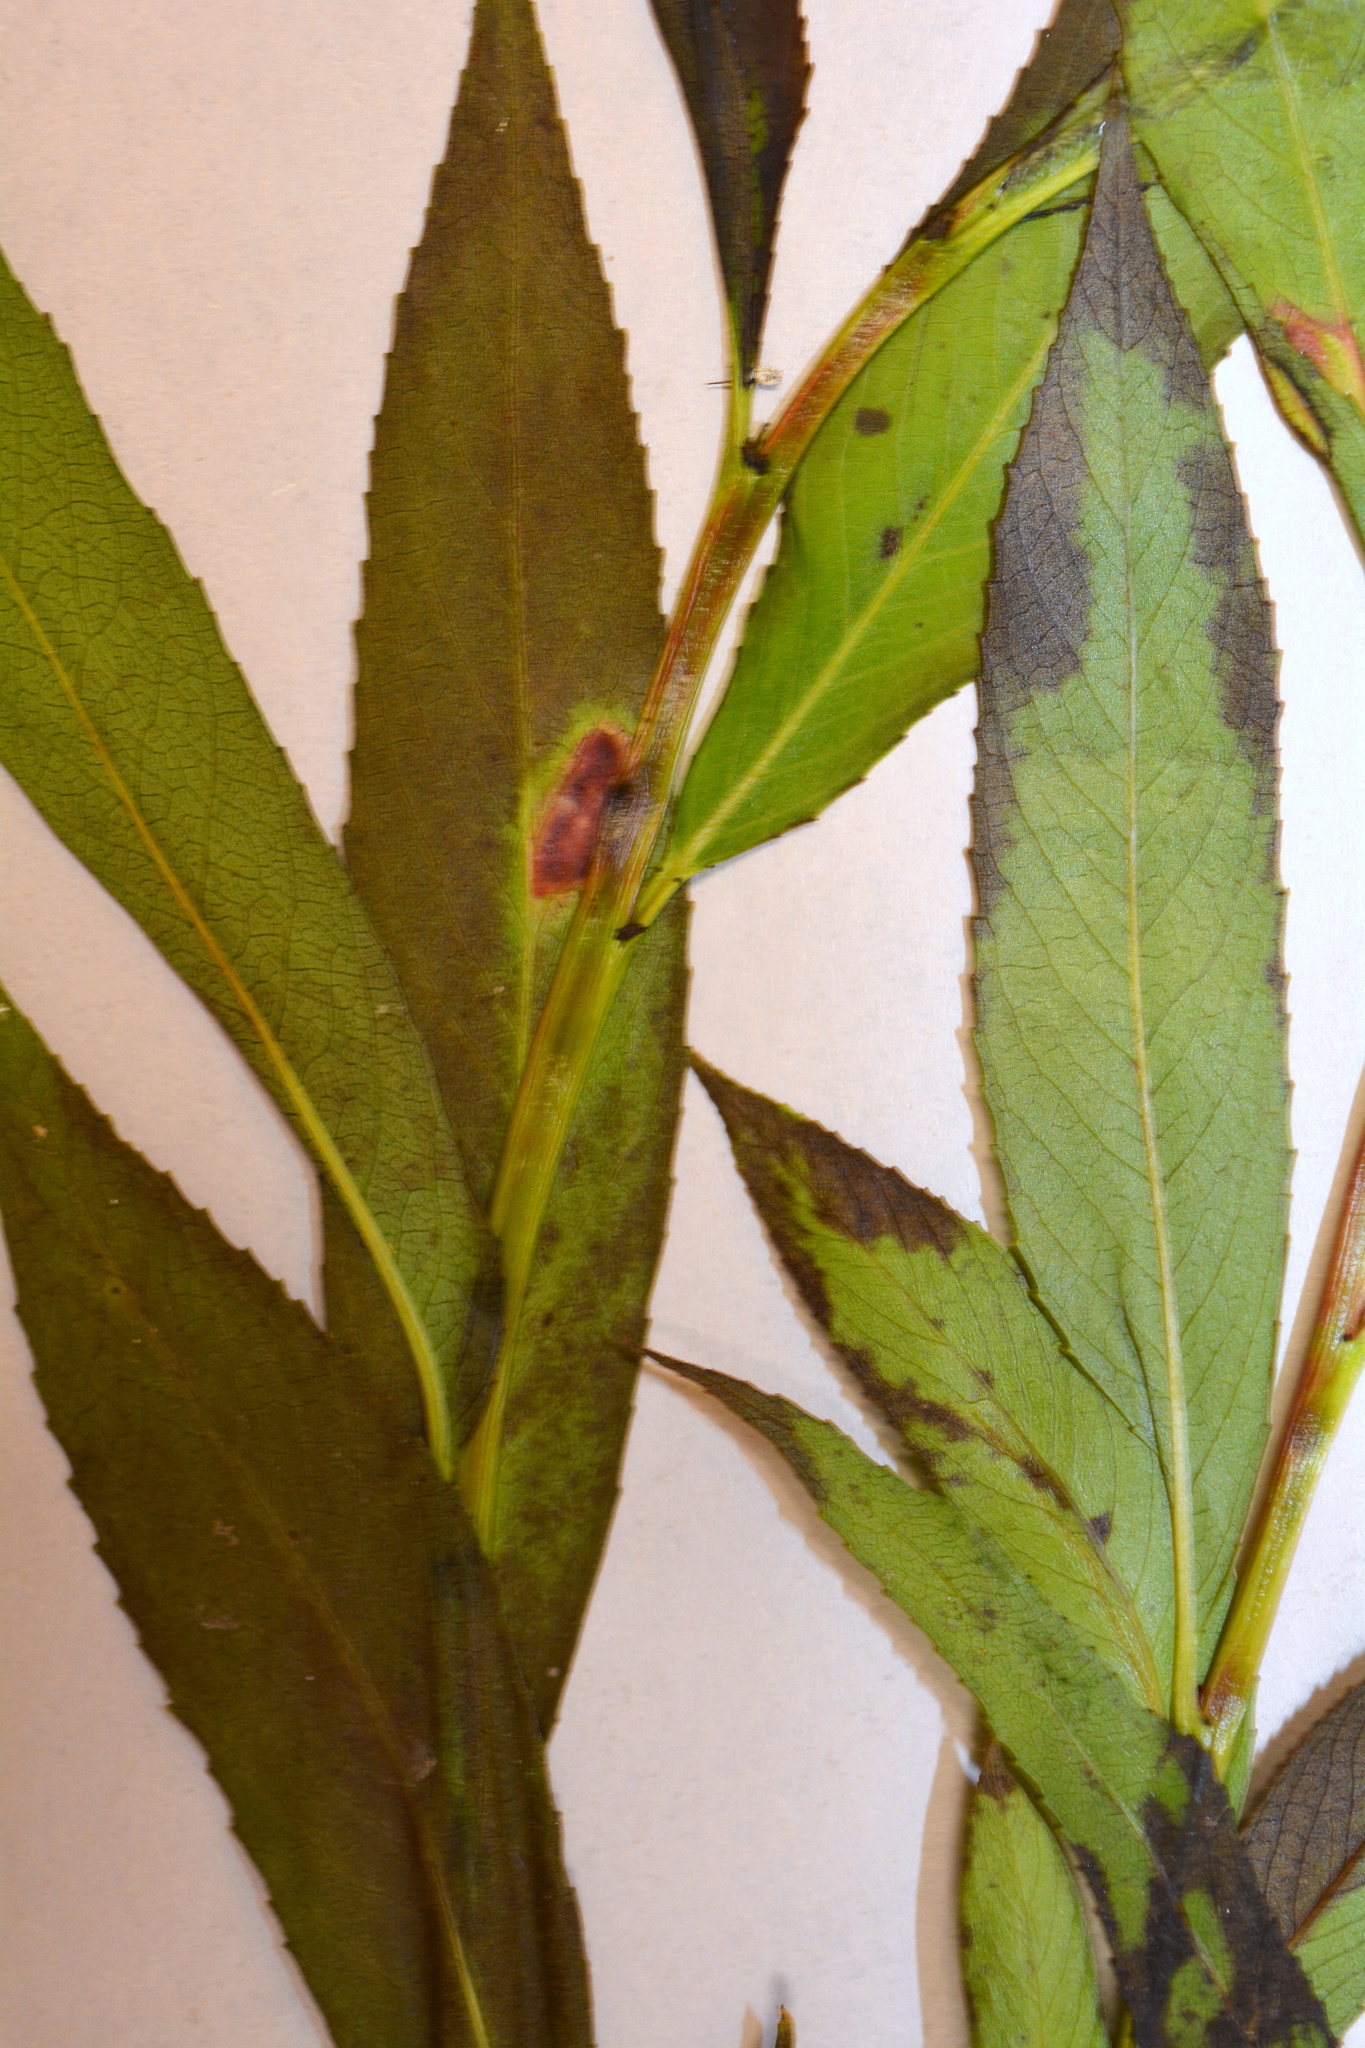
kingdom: Plantae
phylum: Tracheophyta
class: Magnoliopsida
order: Malpighiales
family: Salicaceae
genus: Salix
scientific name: Salix fragilis
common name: Crack willow
